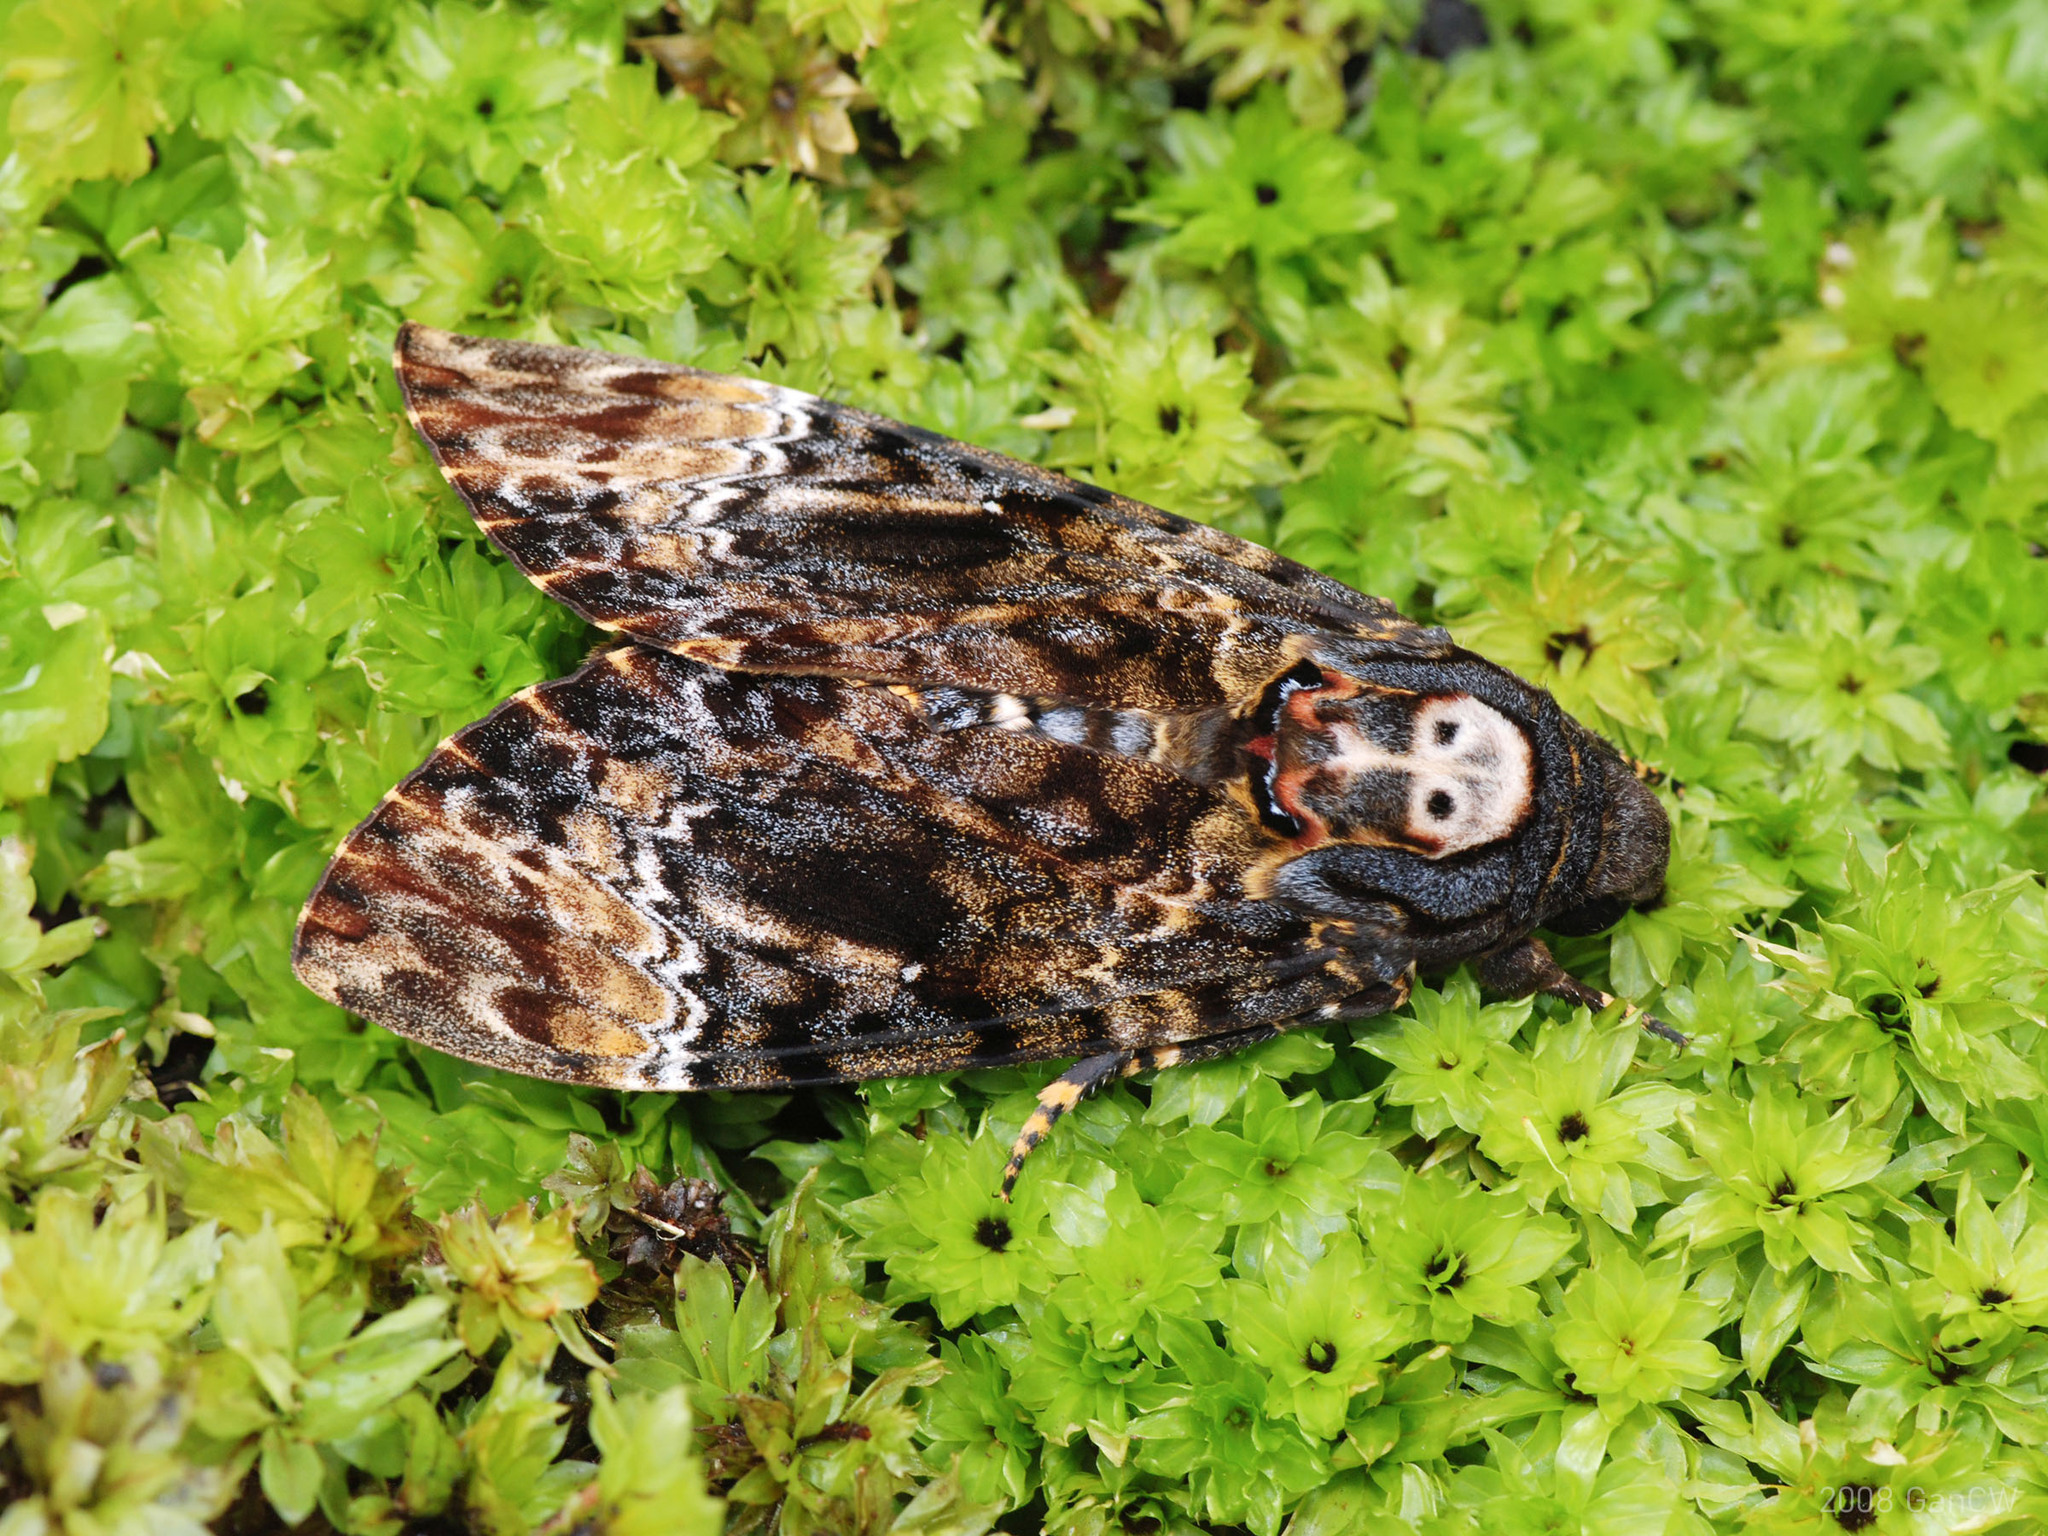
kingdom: Animalia
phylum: Arthropoda
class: Insecta
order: Lepidoptera
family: Sphingidae
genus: Acherontia
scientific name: Acherontia lachesis
